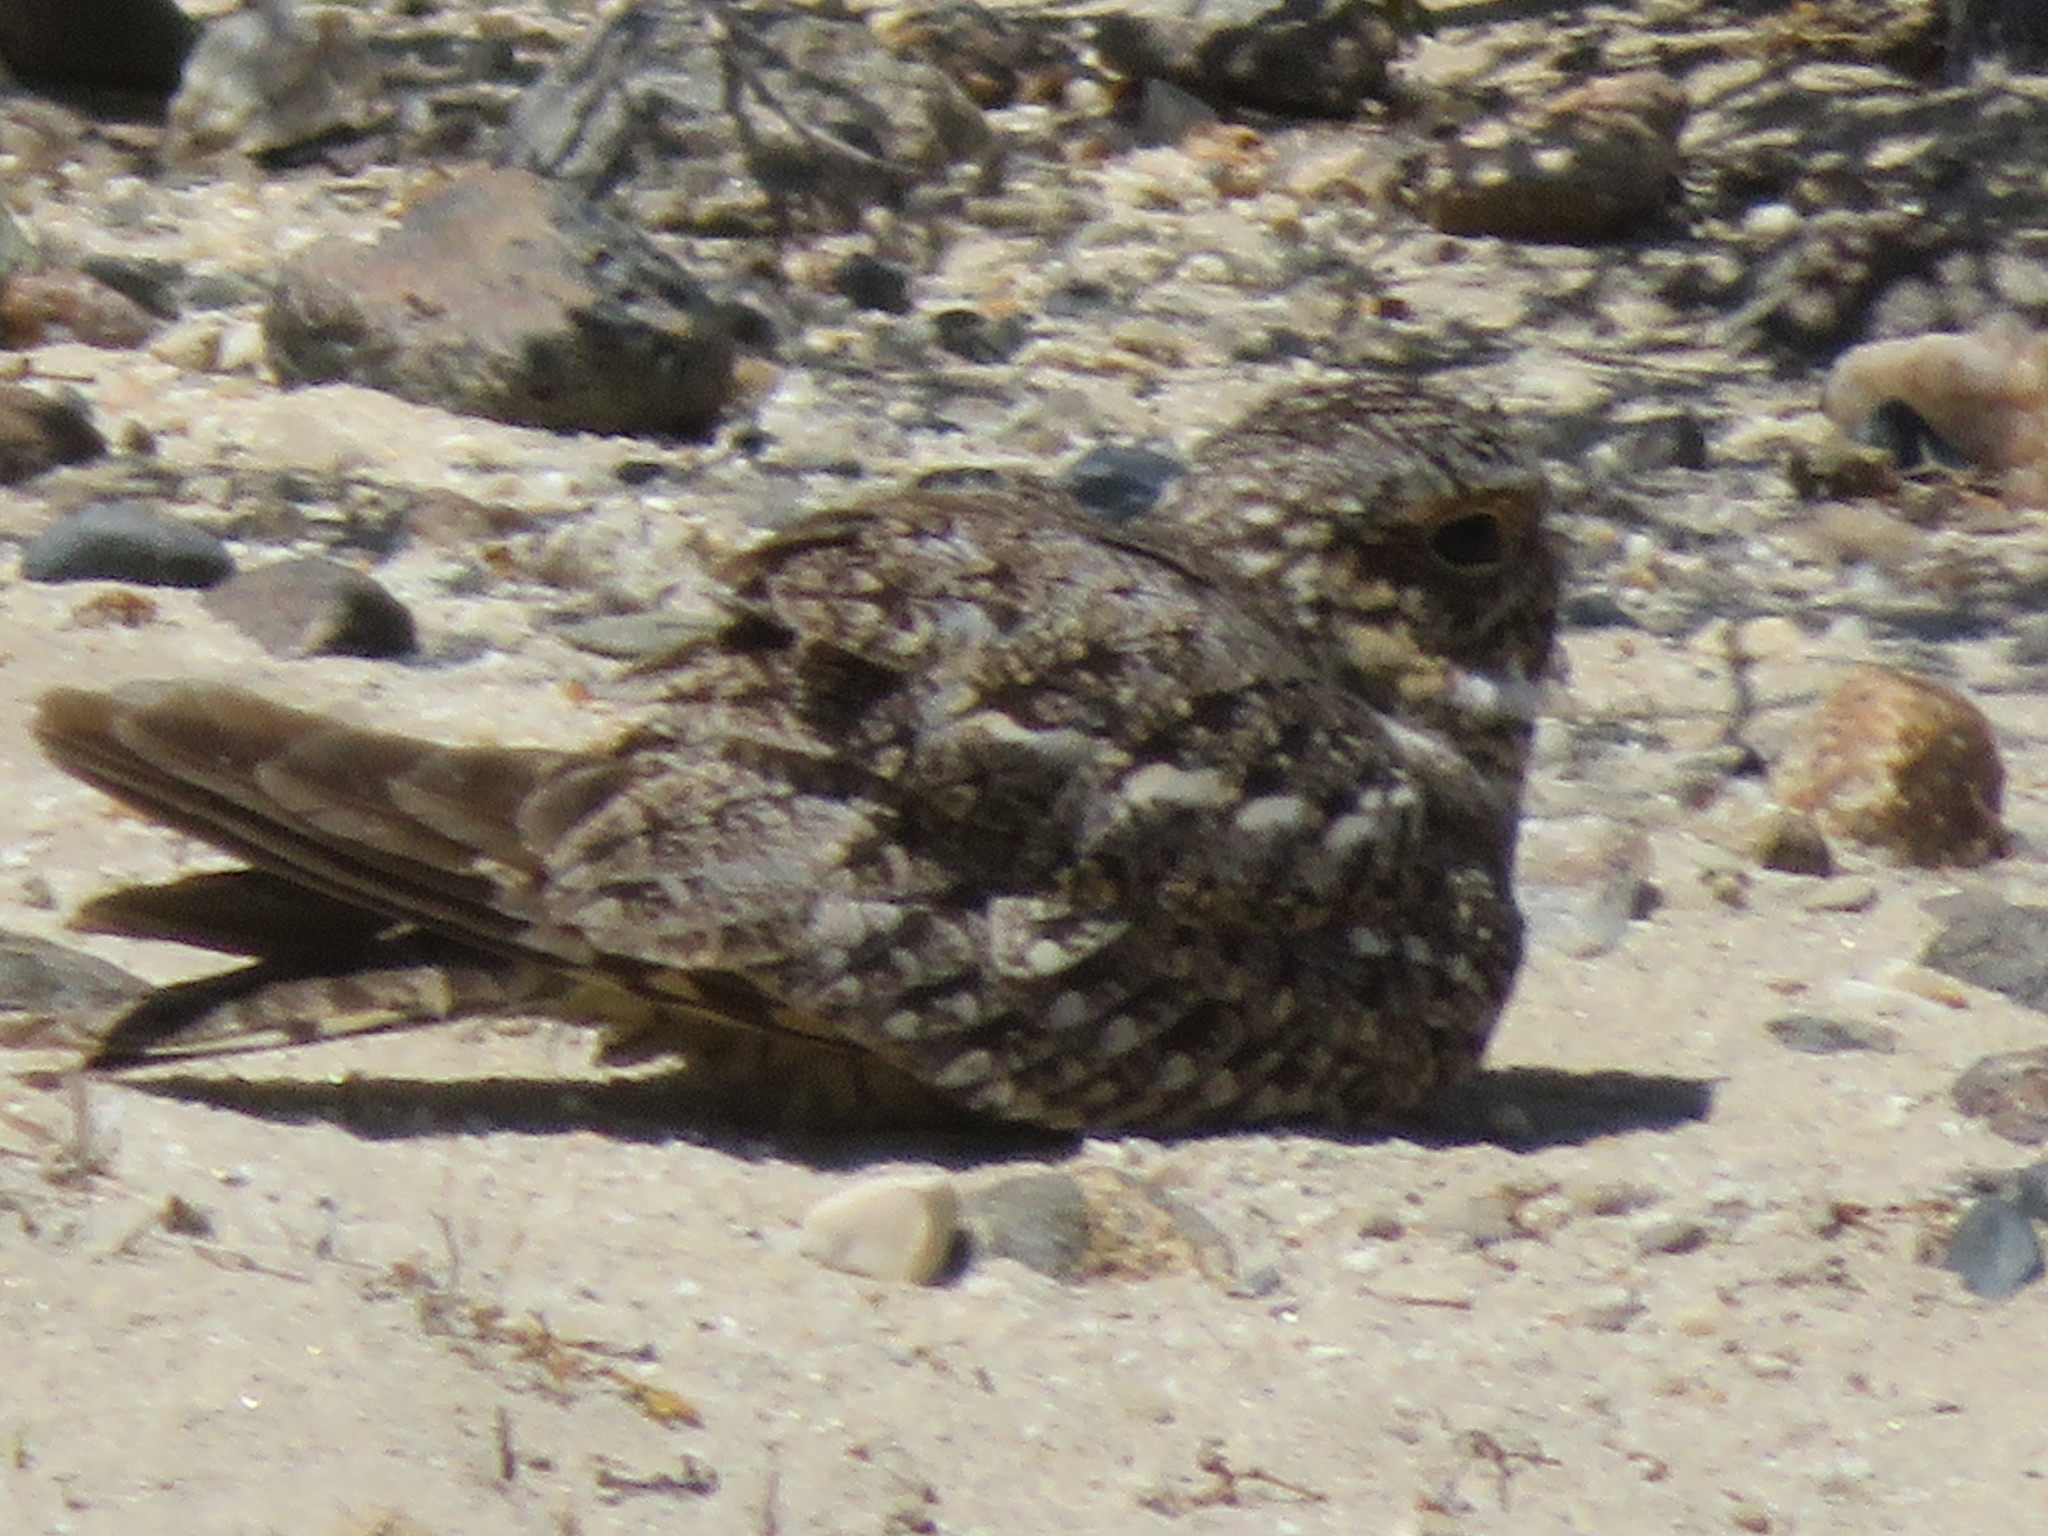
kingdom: Animalia
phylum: Chordata
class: Aves
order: Caprimulgiformes
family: Caprimulgidae
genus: Chordeiles
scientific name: Chordeiles acutipennis
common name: Lesser nighthawk
